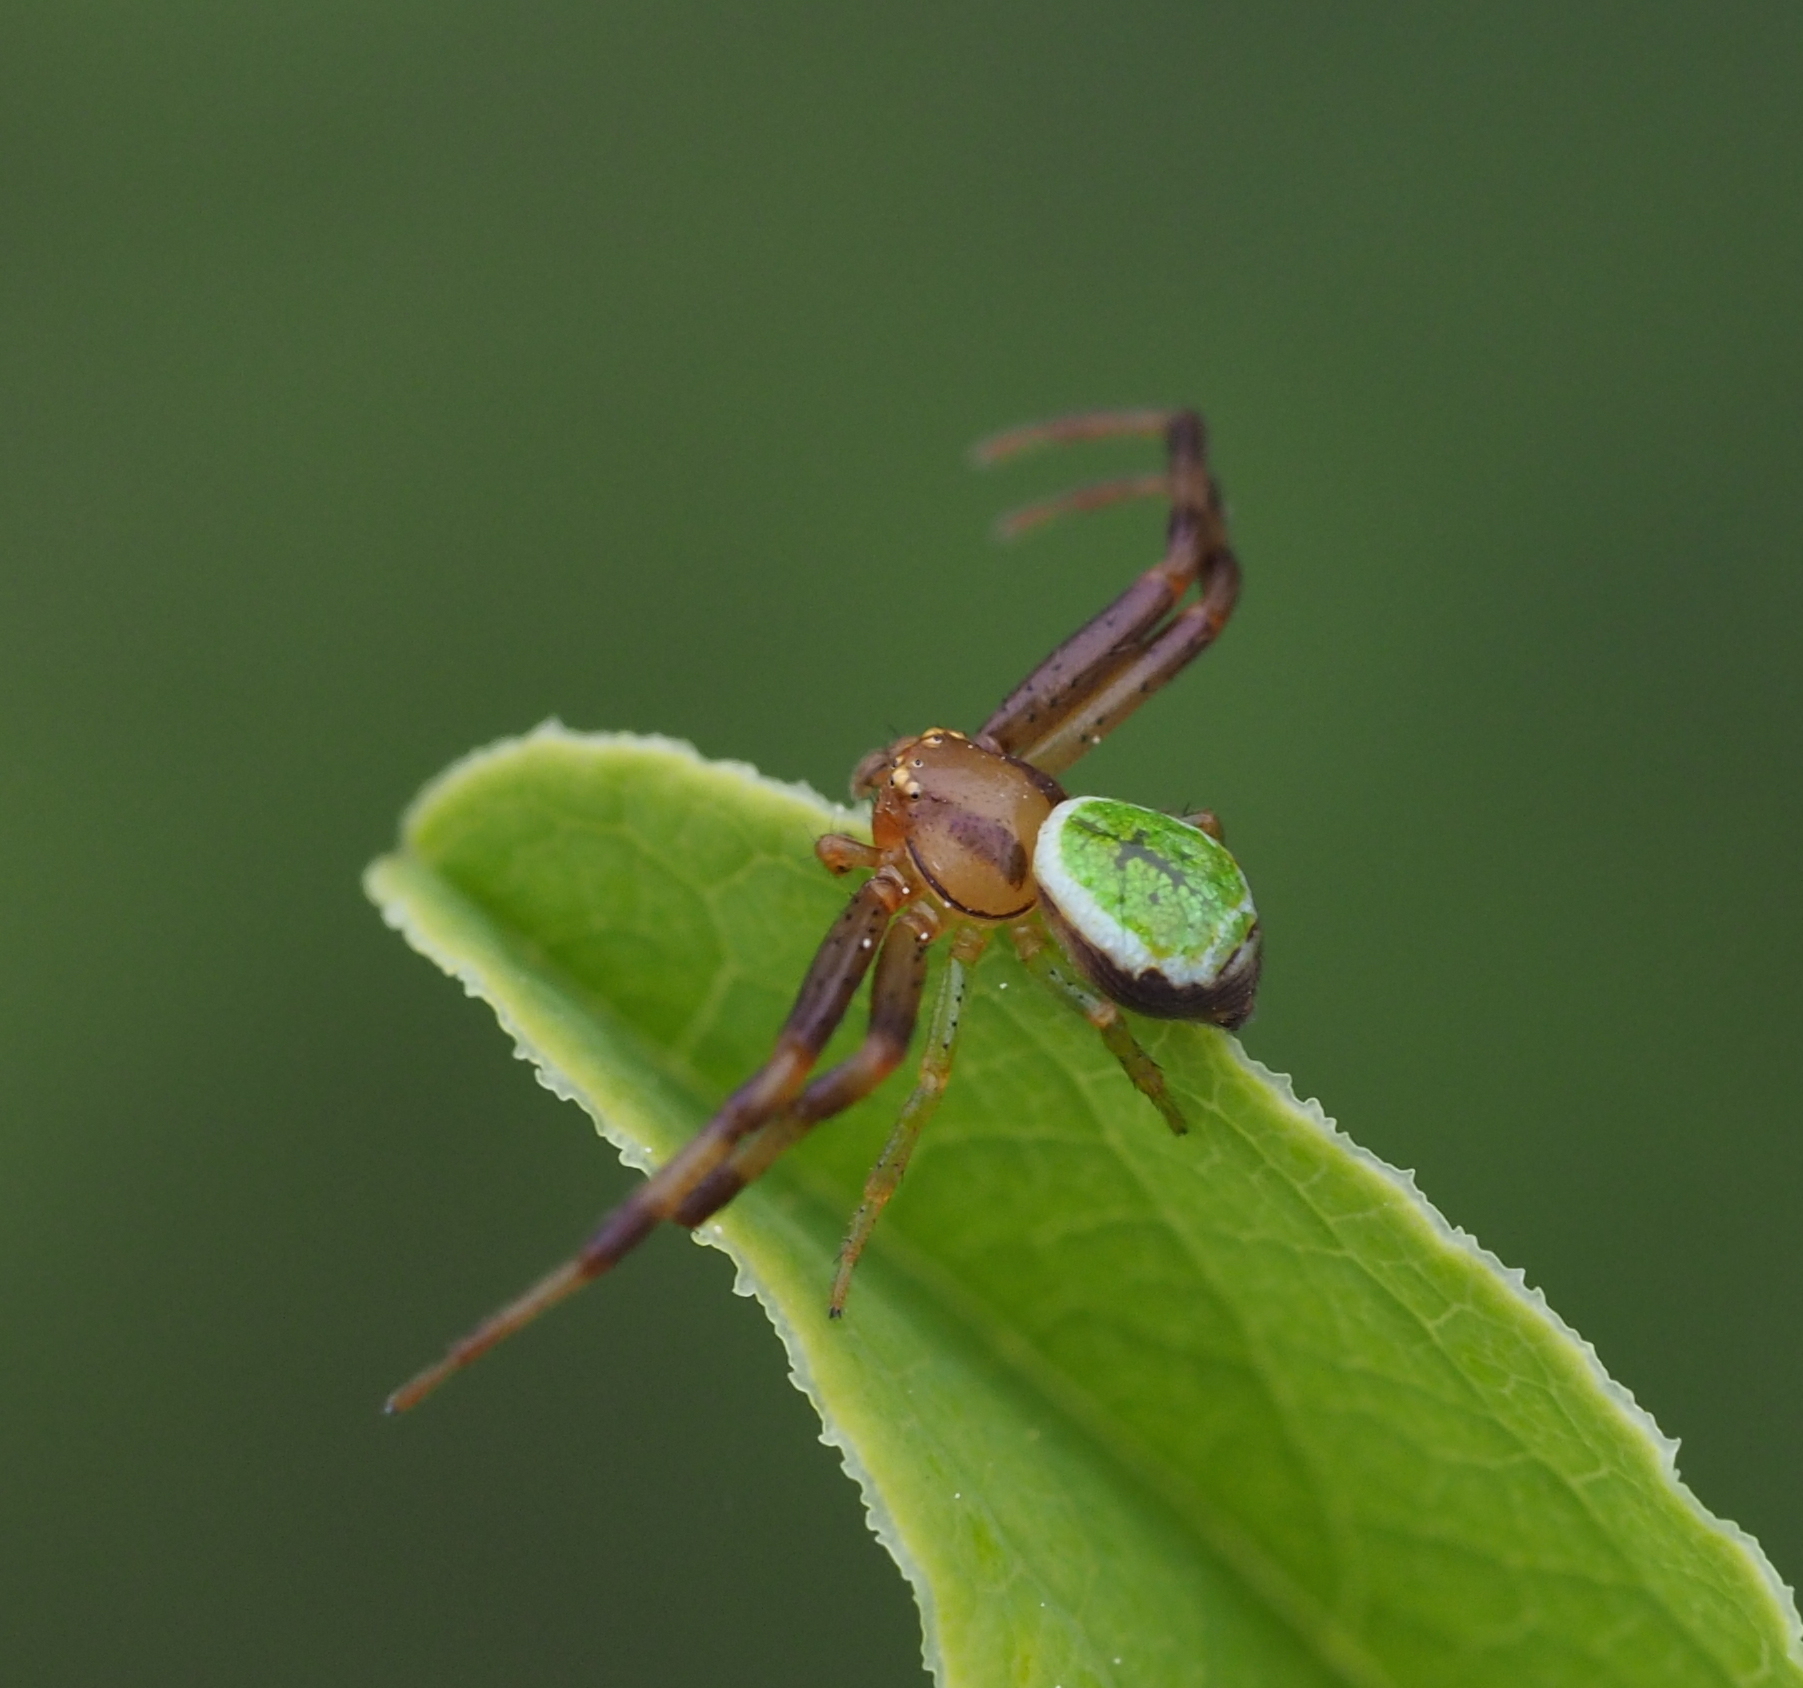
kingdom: Animalia
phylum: Arthropoda
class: Arachnida
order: Araneae
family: Thomisidae
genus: Ebrechtella
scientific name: Ebrechtella tricuspidata
